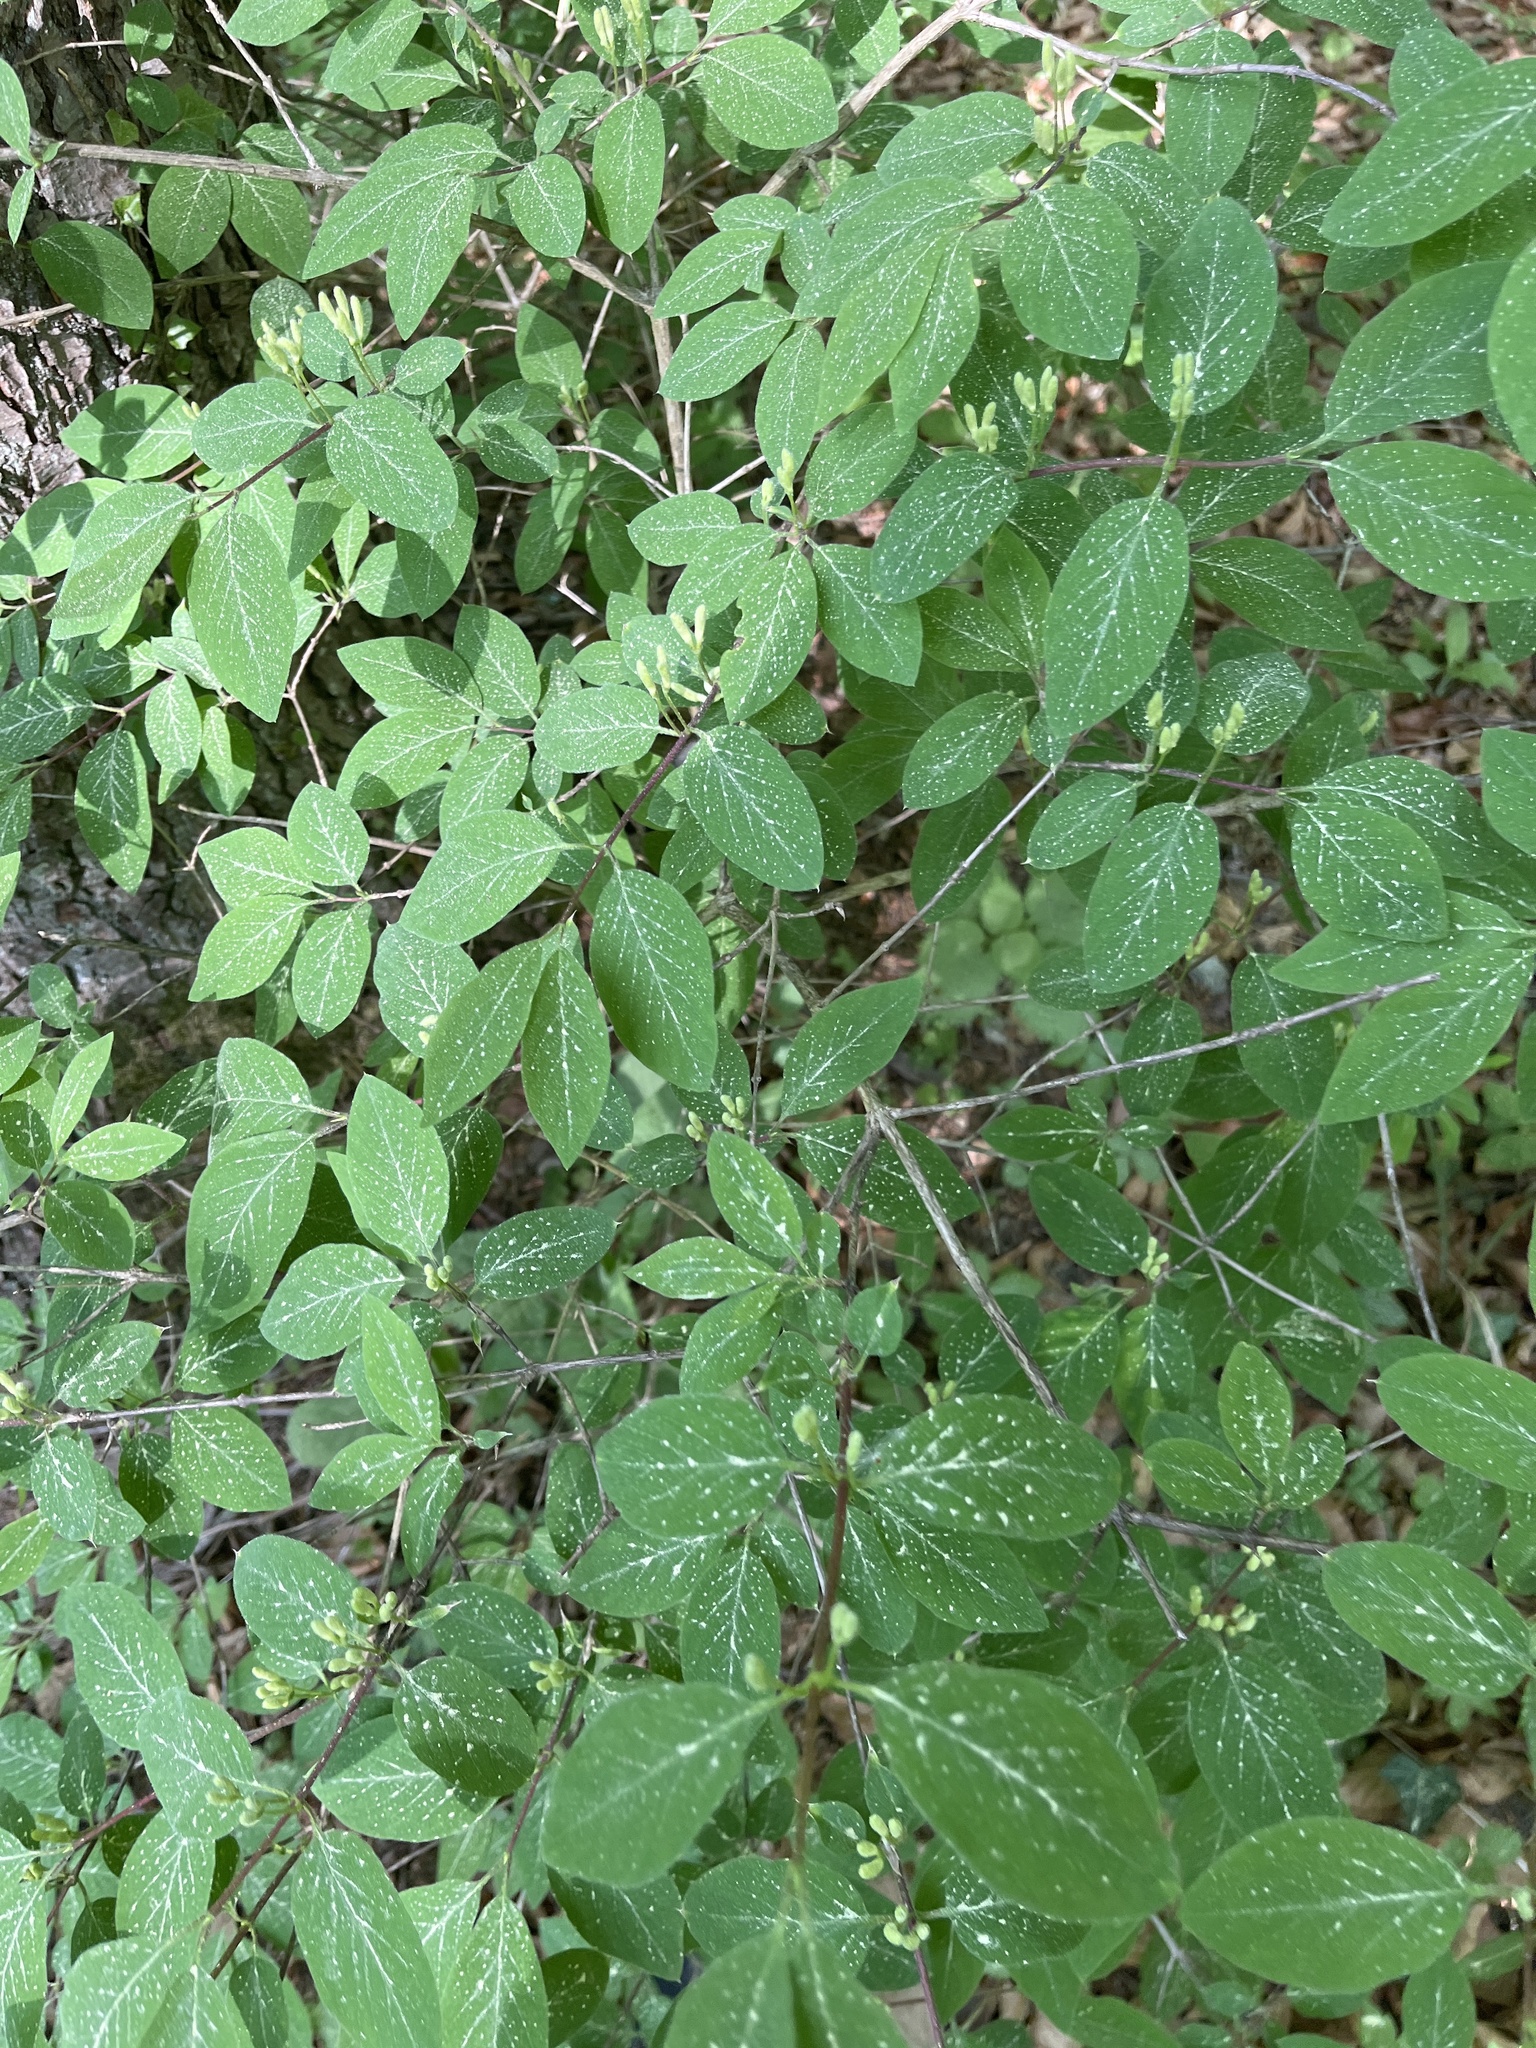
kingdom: Plantae
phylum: Tracheophyta
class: Magnoliopsida
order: Dipsacales
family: Caprifoliaceae
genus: Lonicera
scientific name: Lonicera xylosteum
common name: Fly honeysuckle
